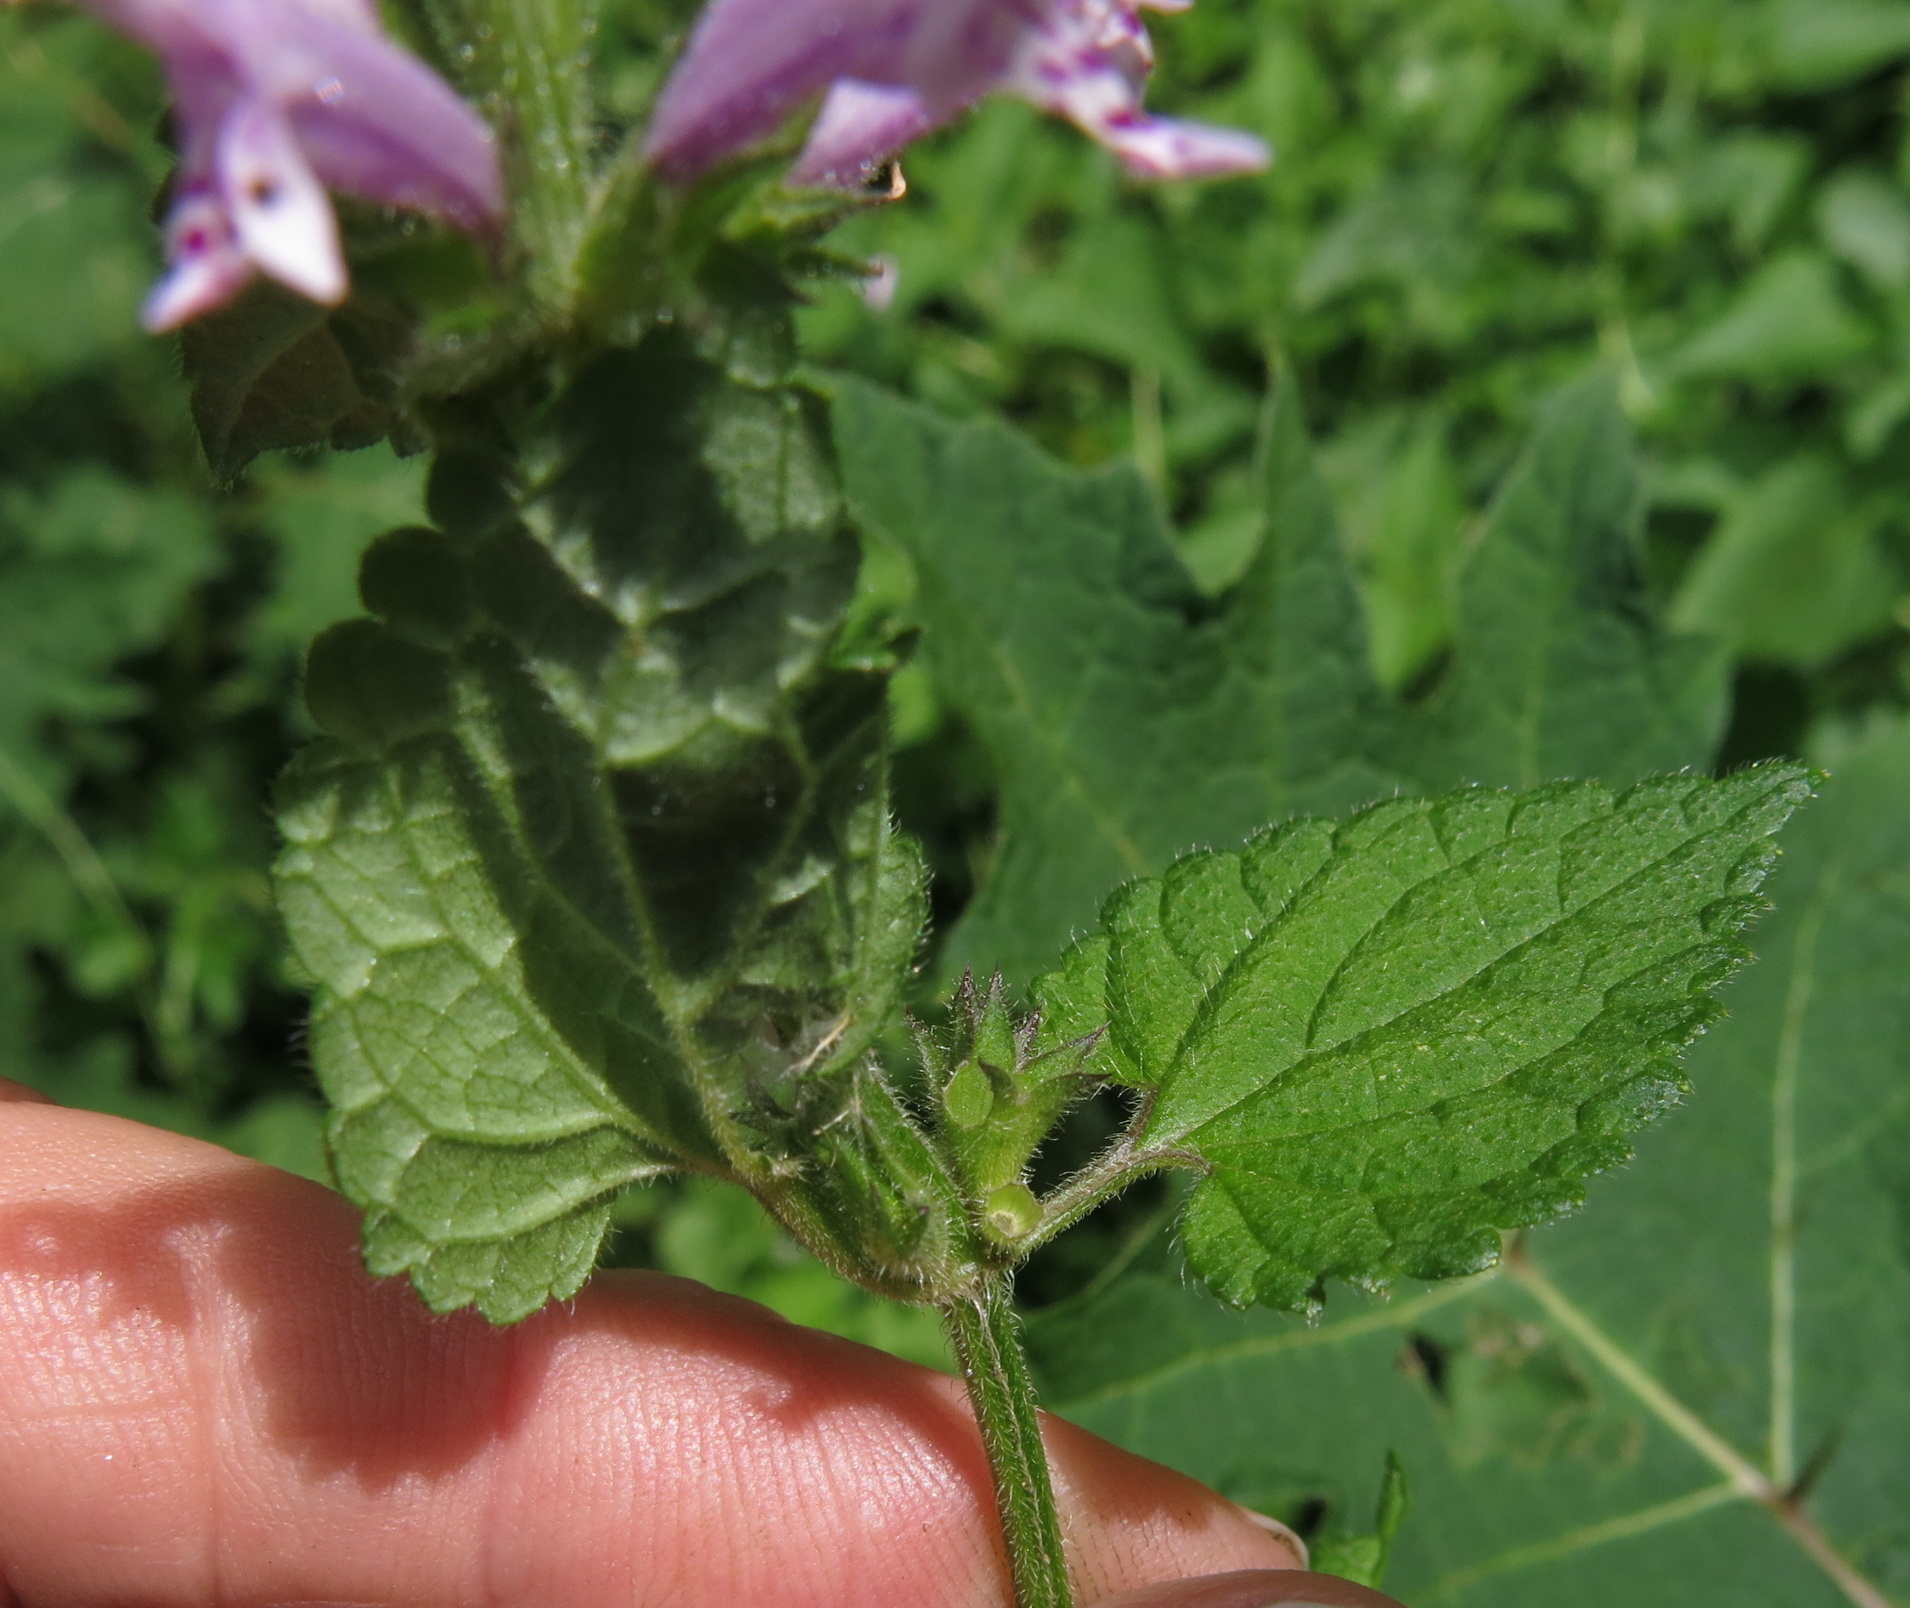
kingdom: Plantae
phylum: Tracheophyta
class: Magnoliopsida
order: Lamiales
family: Lamiaceae
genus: Stachys
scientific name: Stachys tubulosa
